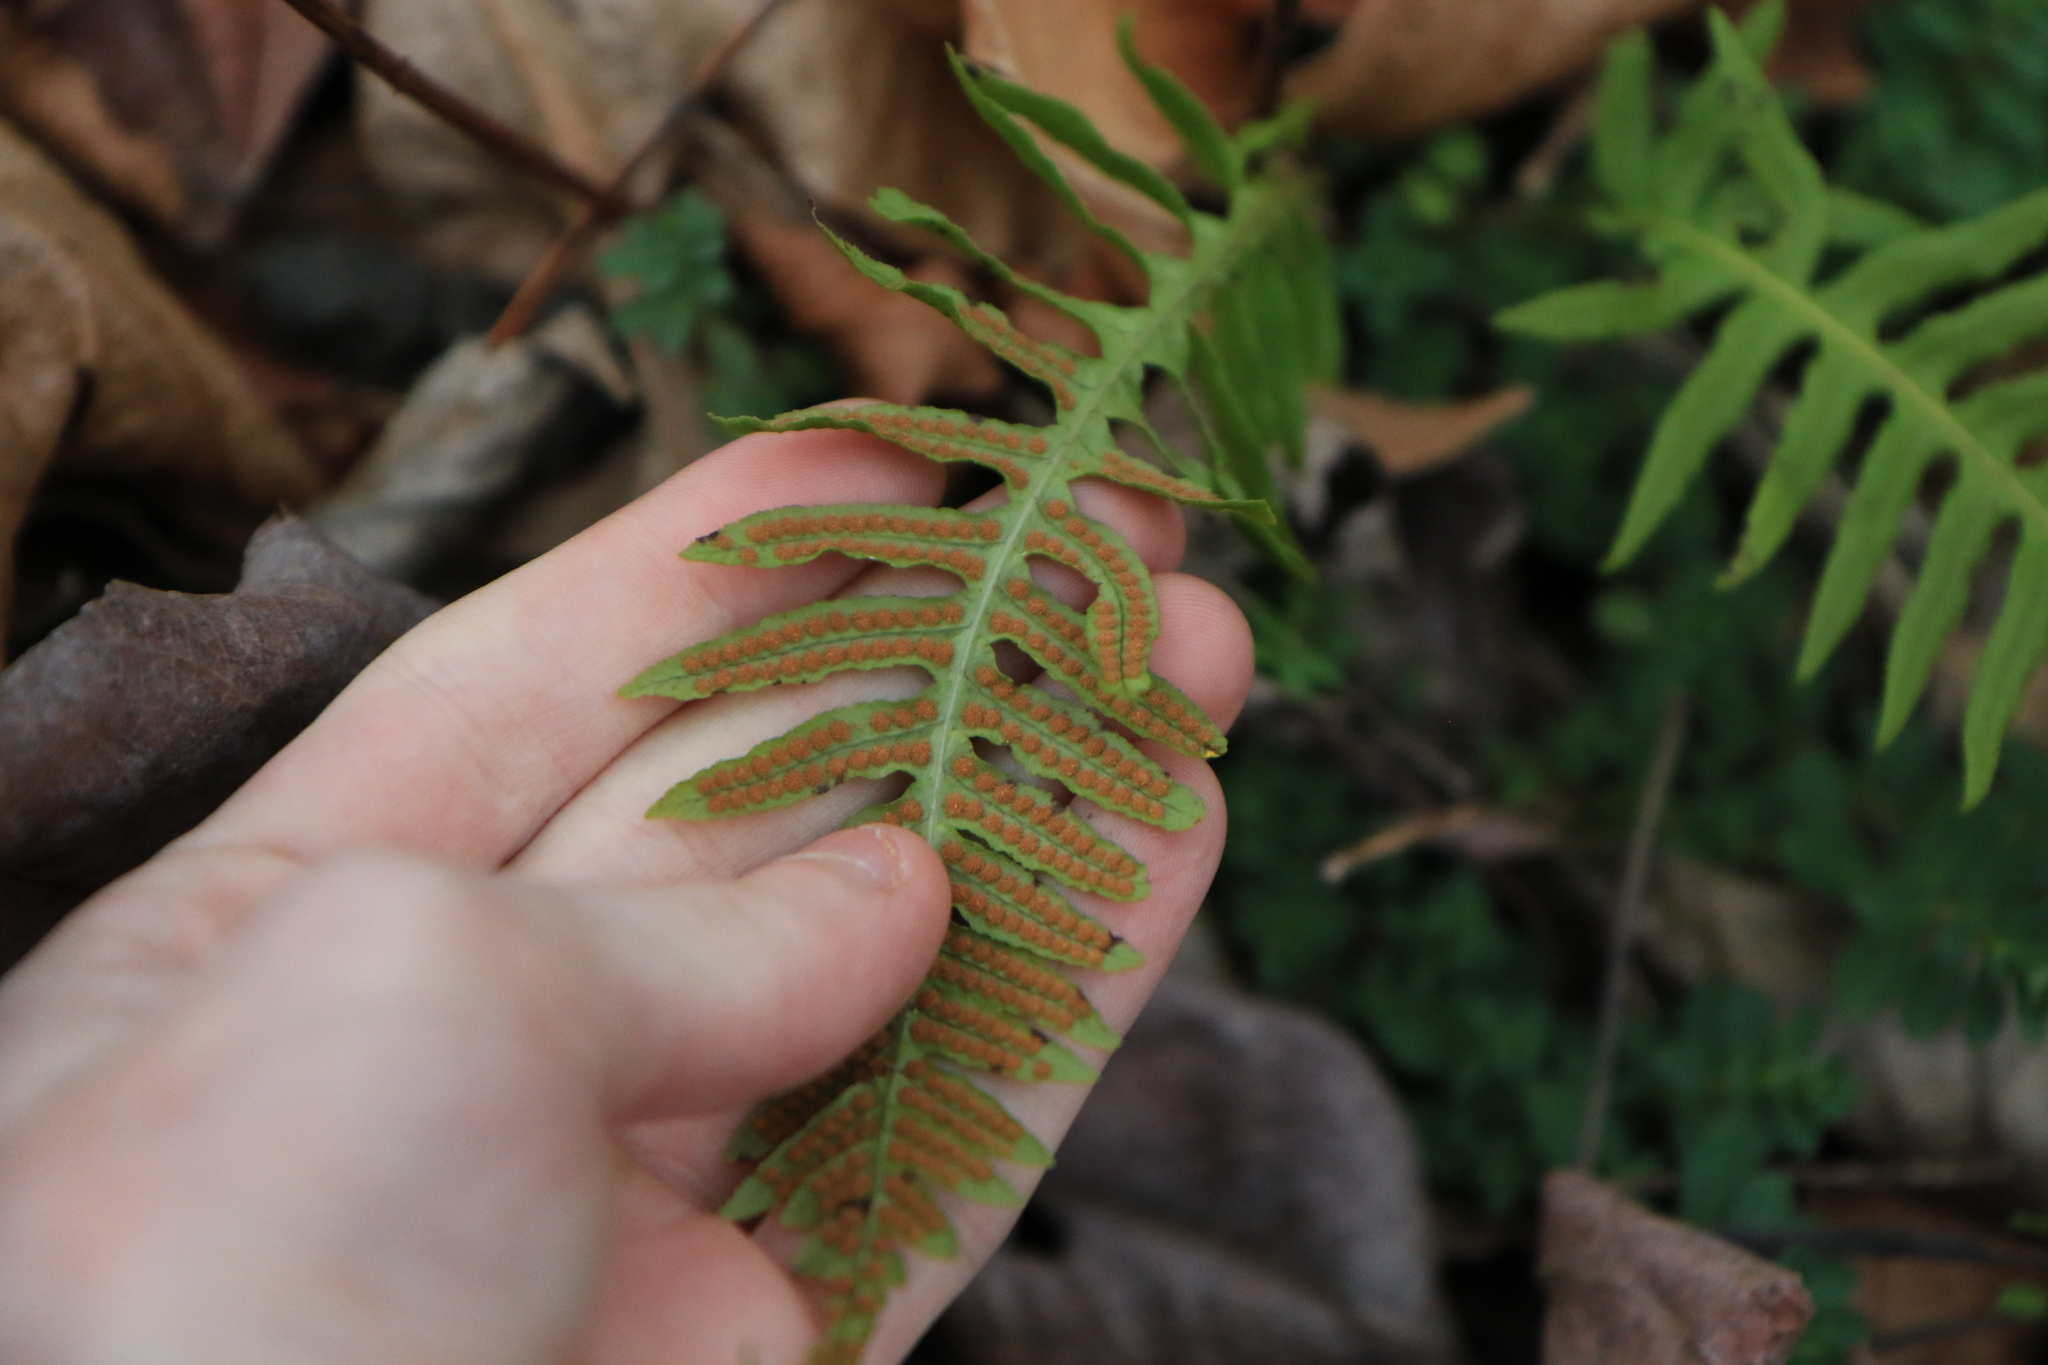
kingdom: Plantae
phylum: Tracheophyta
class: Polypodiopsida
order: Polypodiales
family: Polypodiaceae
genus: Polypodium
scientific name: Polypodium glycyrrhiza
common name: Licorice fern
